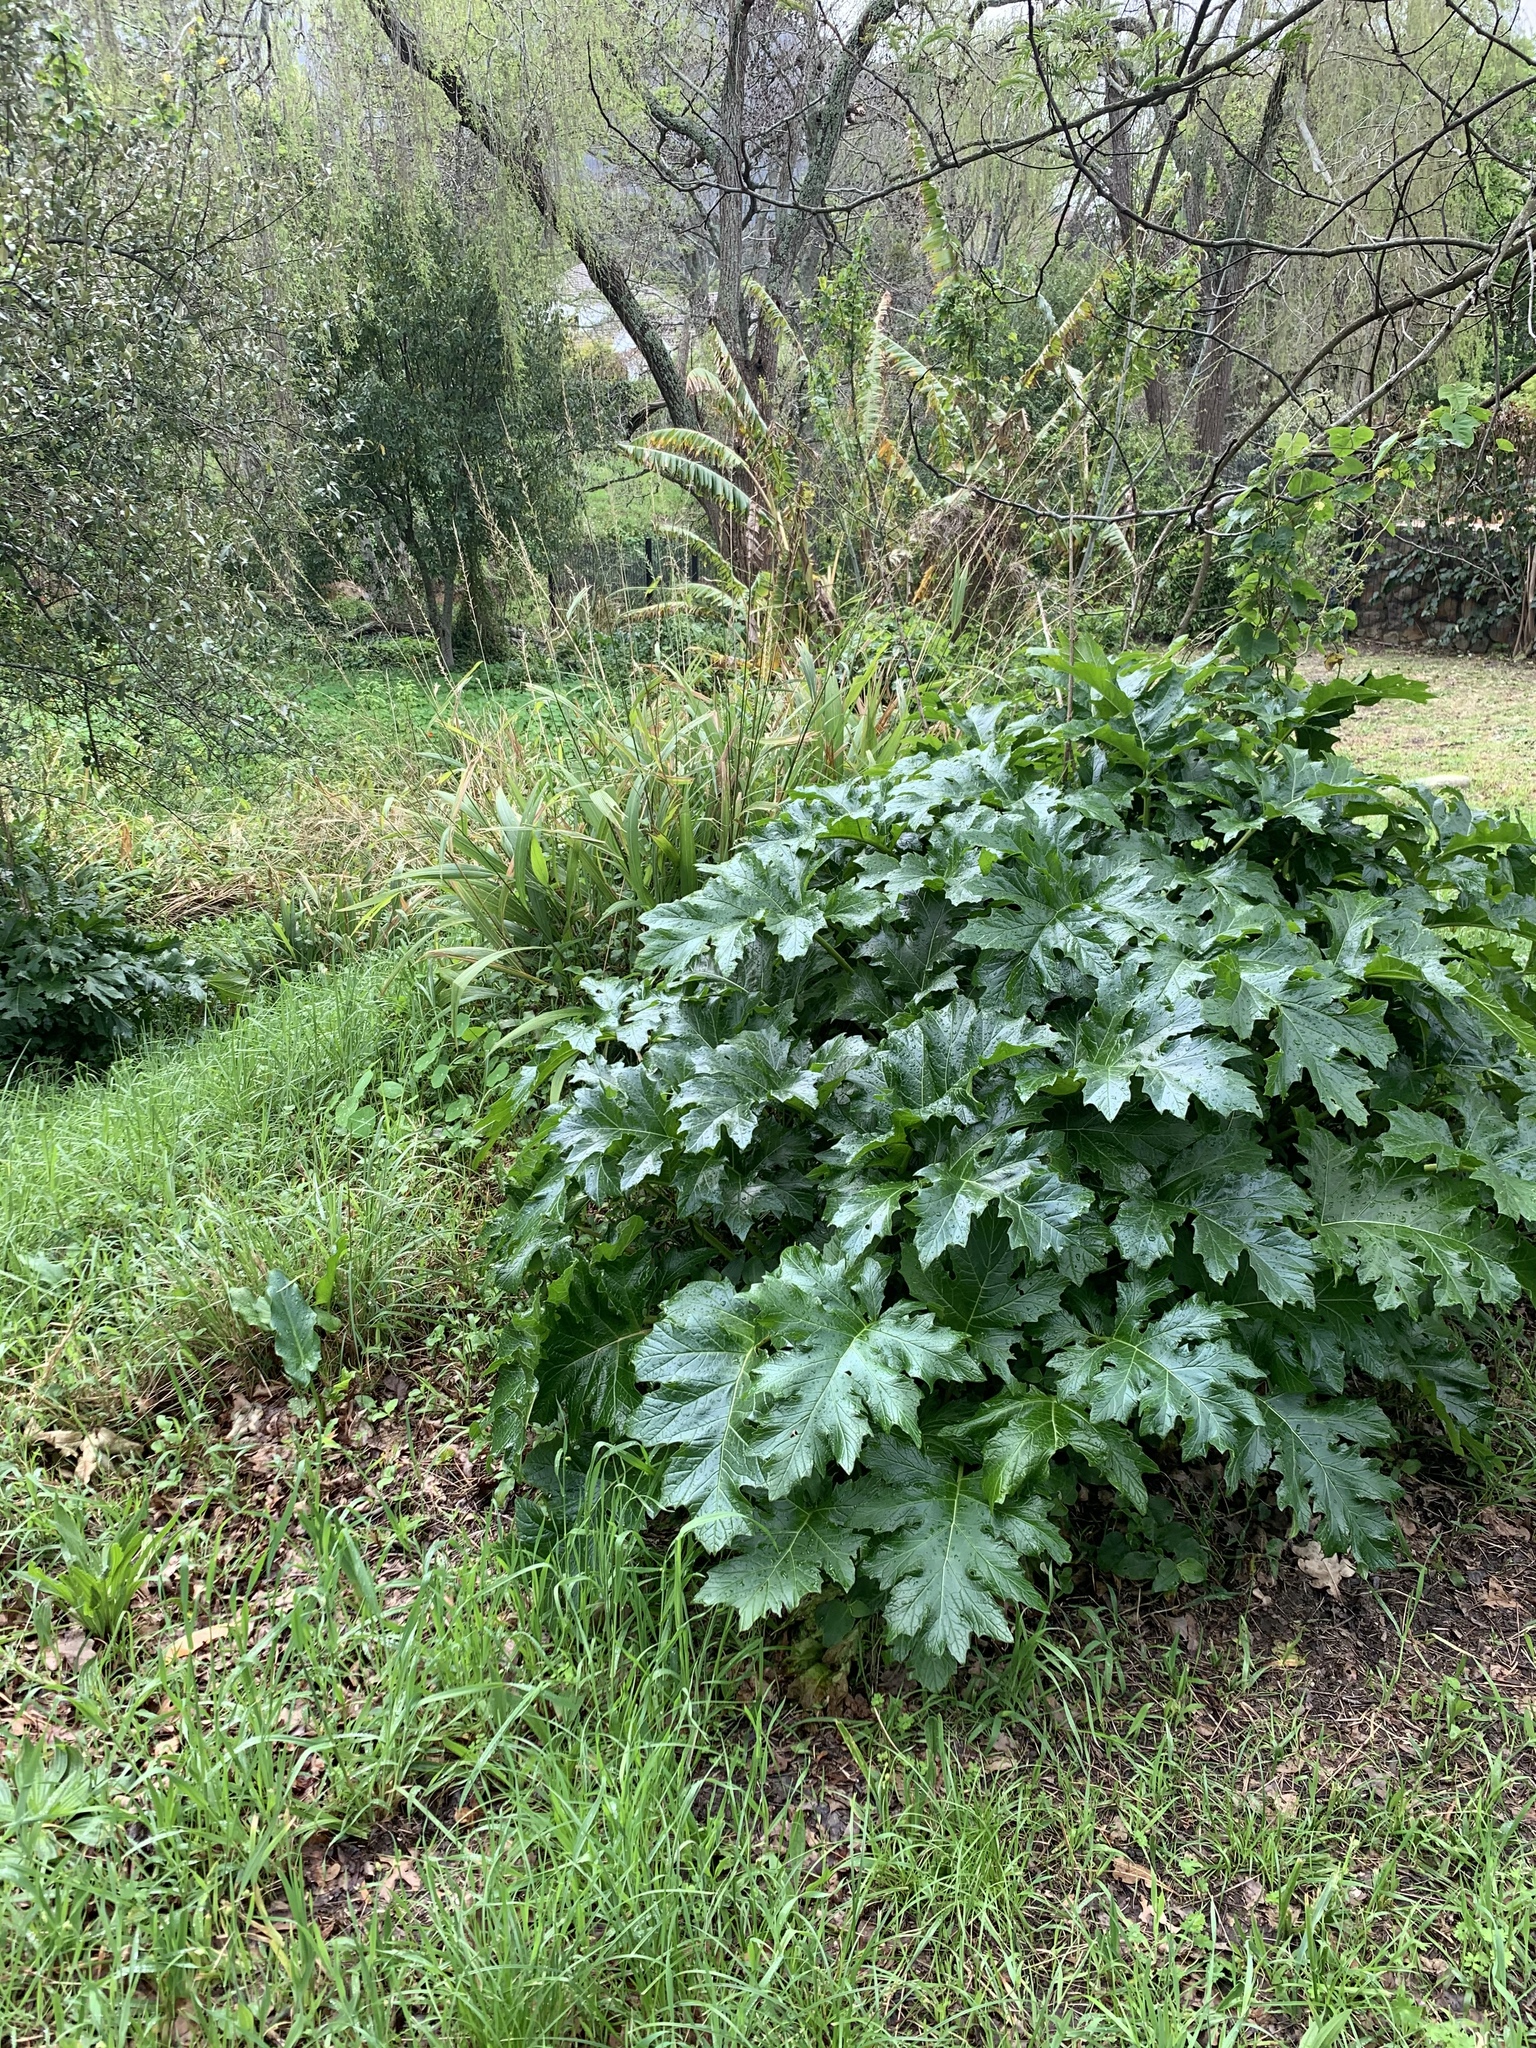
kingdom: Plantae
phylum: Tracheophyta
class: Magnoliopsida
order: Lamiales
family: Acanthaceae
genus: Acanthus
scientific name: Acanthus mollis
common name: Bear's-breech
